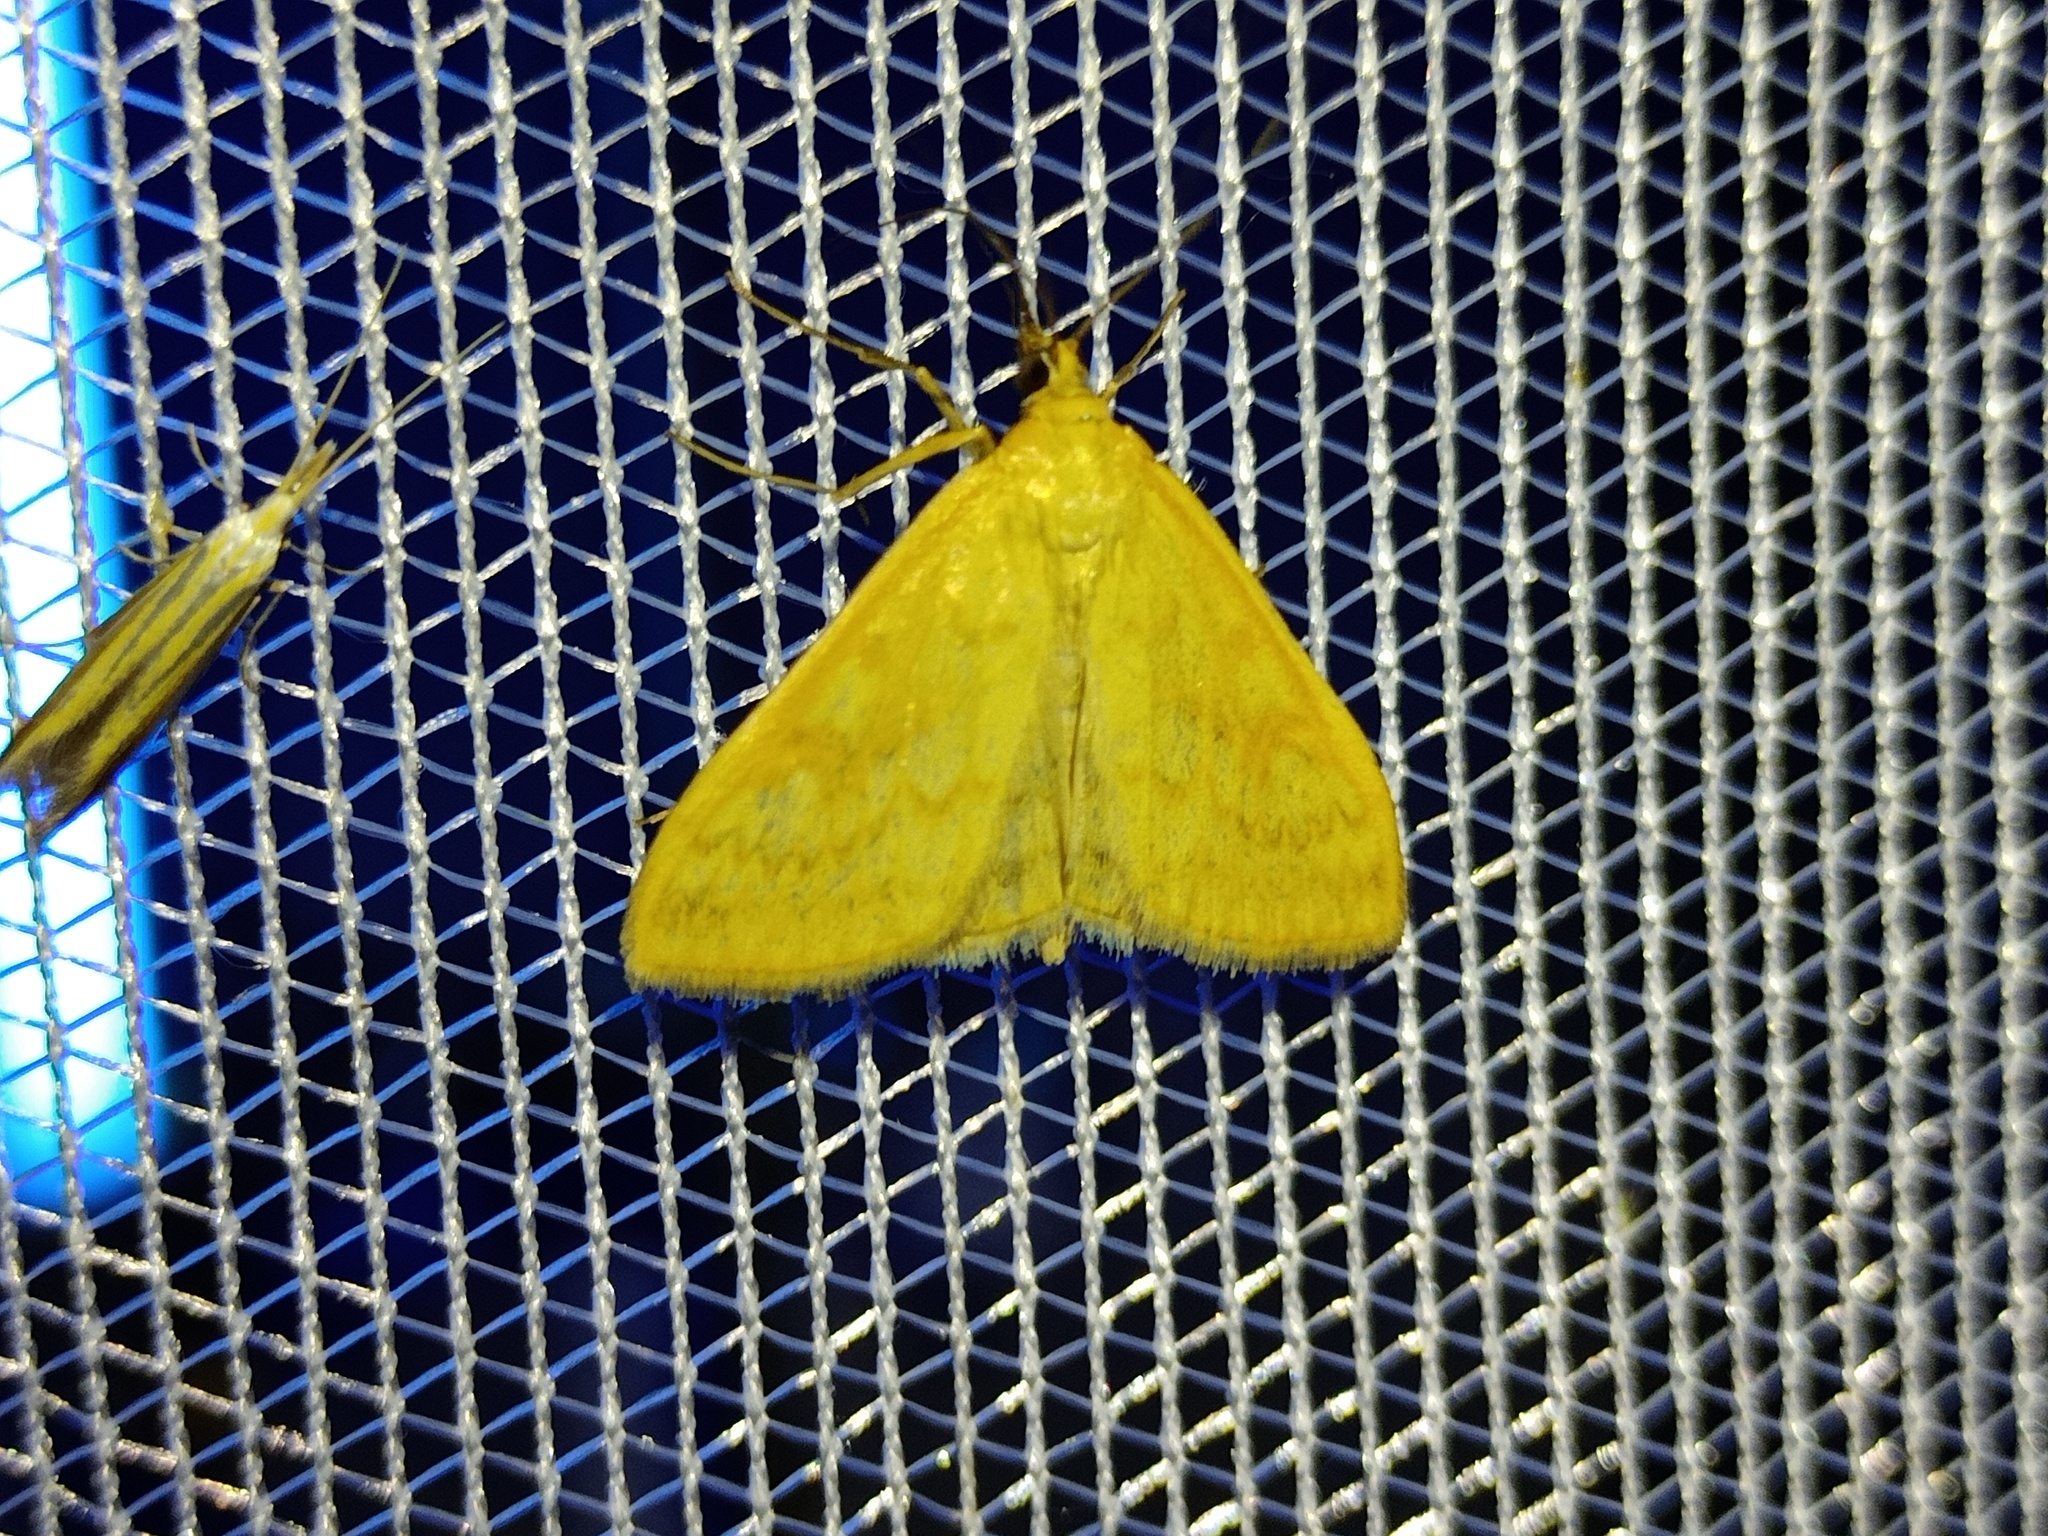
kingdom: Animalia
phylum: Arthropoda
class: Insecta
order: Lepidoptera
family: Crambidae
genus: Sitochroa
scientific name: Sitochroa verticalis
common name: Lesser pearl
